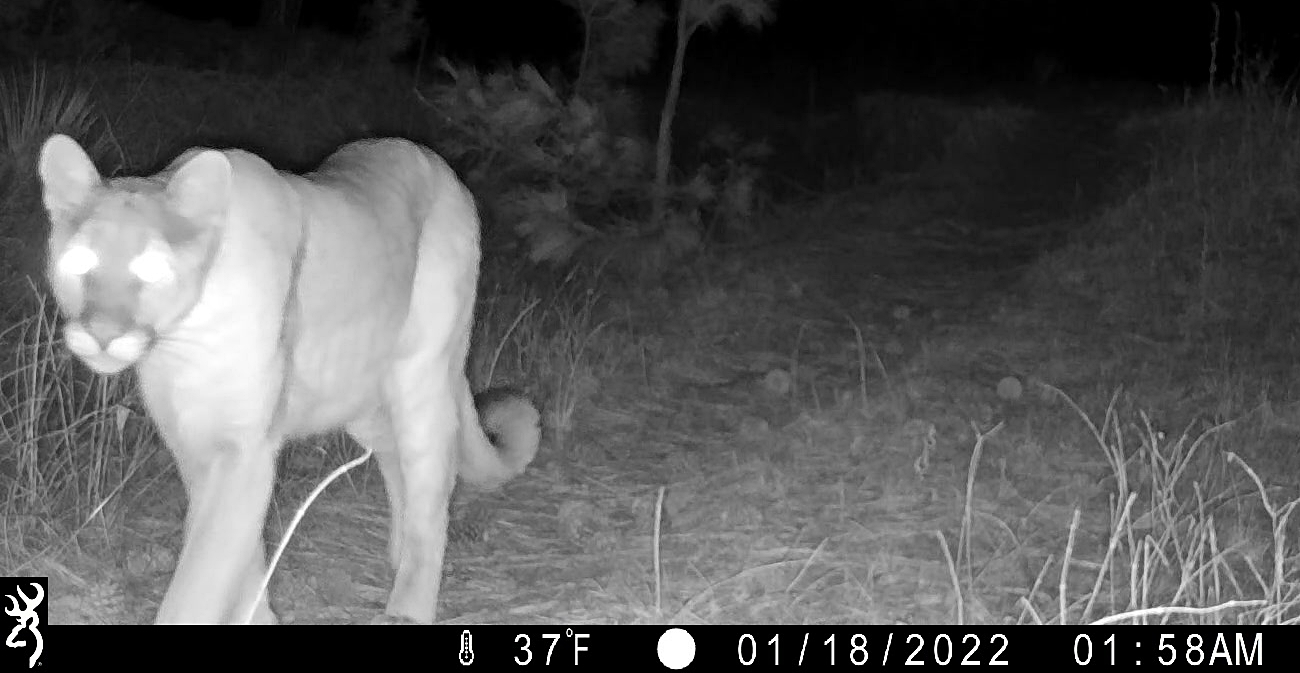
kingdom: Animalia
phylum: Chordata
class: Mammalia
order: Carnivora
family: Felidae
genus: Puma
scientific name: Puma concolor
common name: Puma
